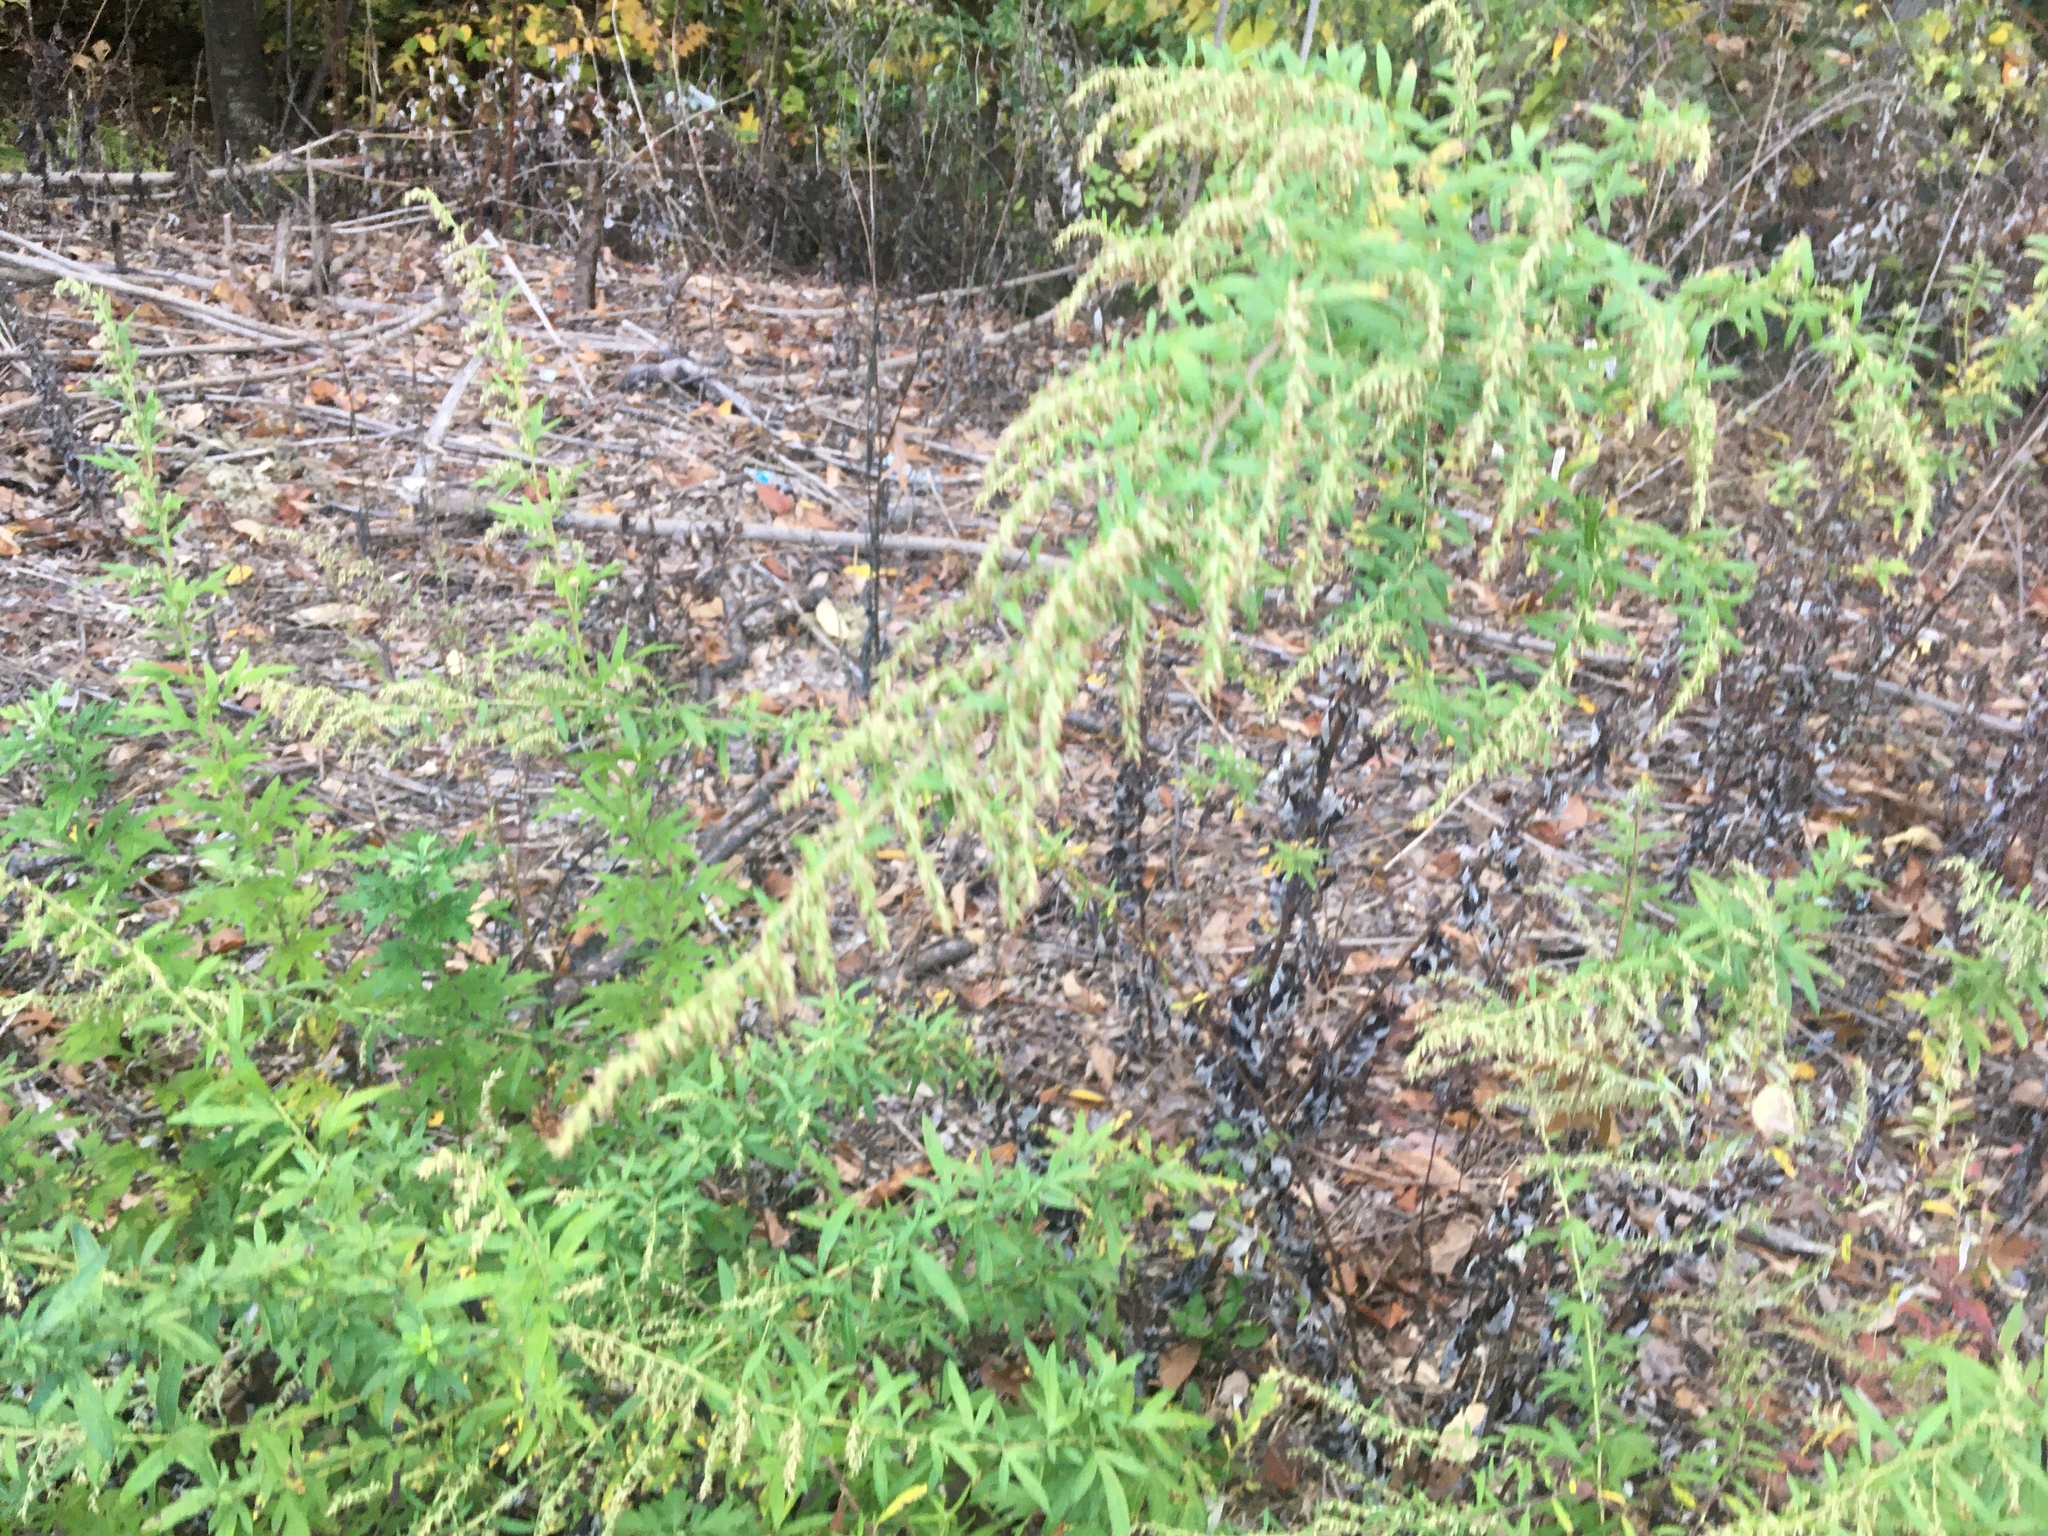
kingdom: Plantae
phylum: Tracheophyta
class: Magnoliopsida
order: Asterales
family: Asteraceae
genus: Artemisia
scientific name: Artemisia vulgaris
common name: Mugwort
